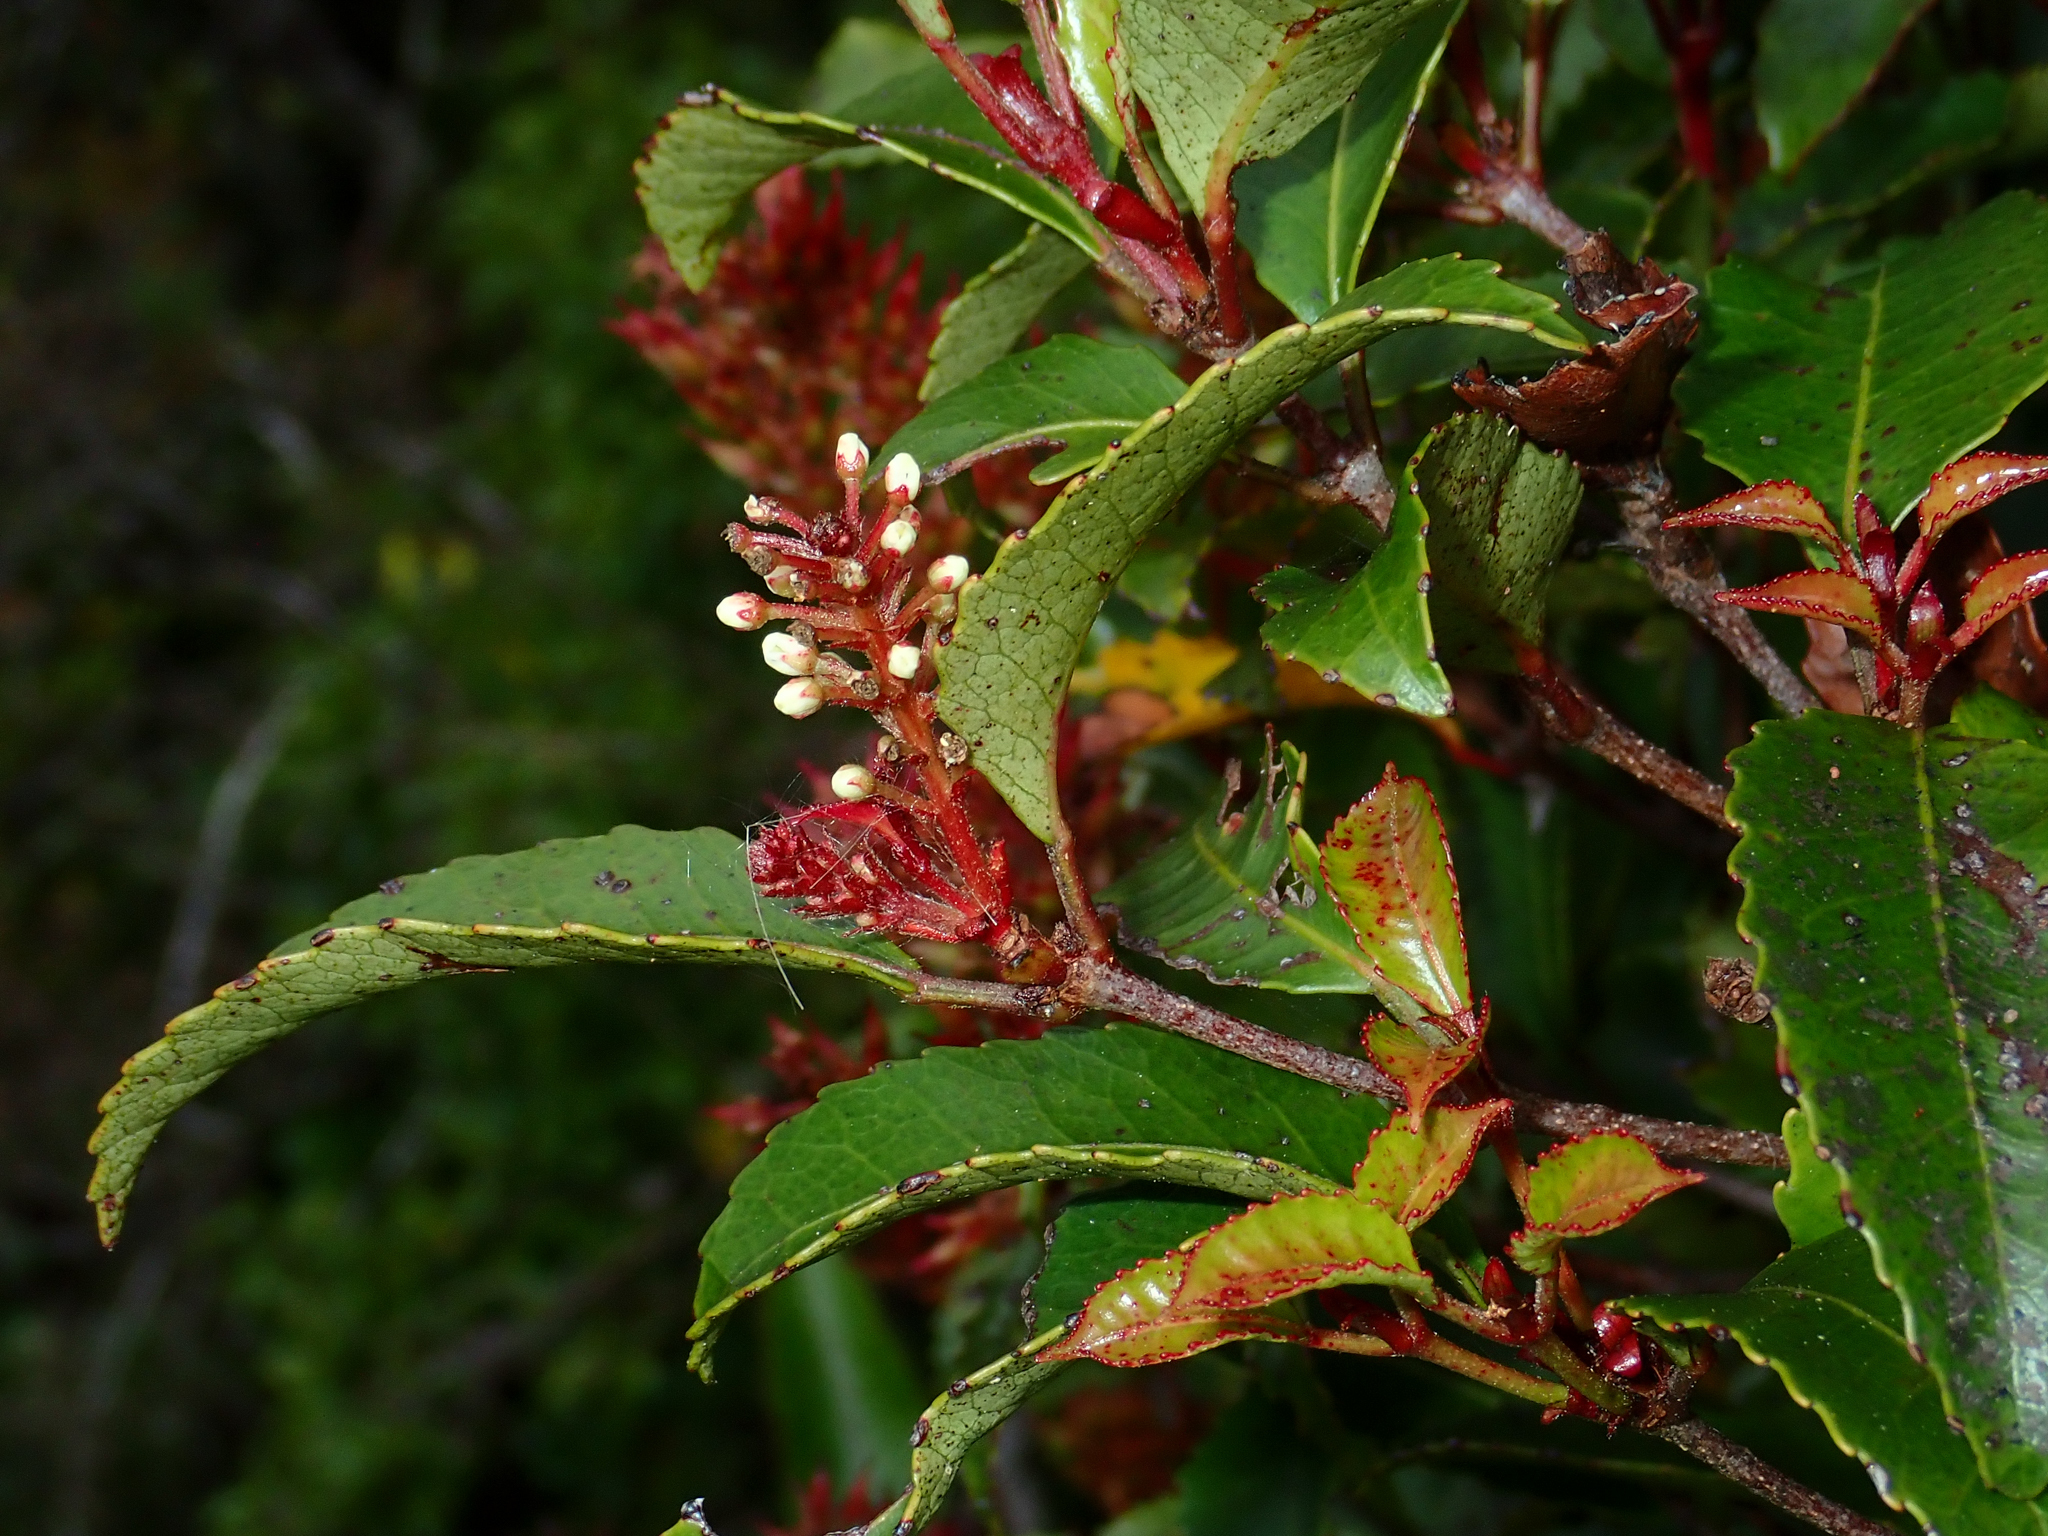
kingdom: Plantae
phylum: Tracheophyta
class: Magnoliopsida
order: Oxalidales
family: Cunoniaceae
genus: Pterophylla
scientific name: Pterophylla racemosa
